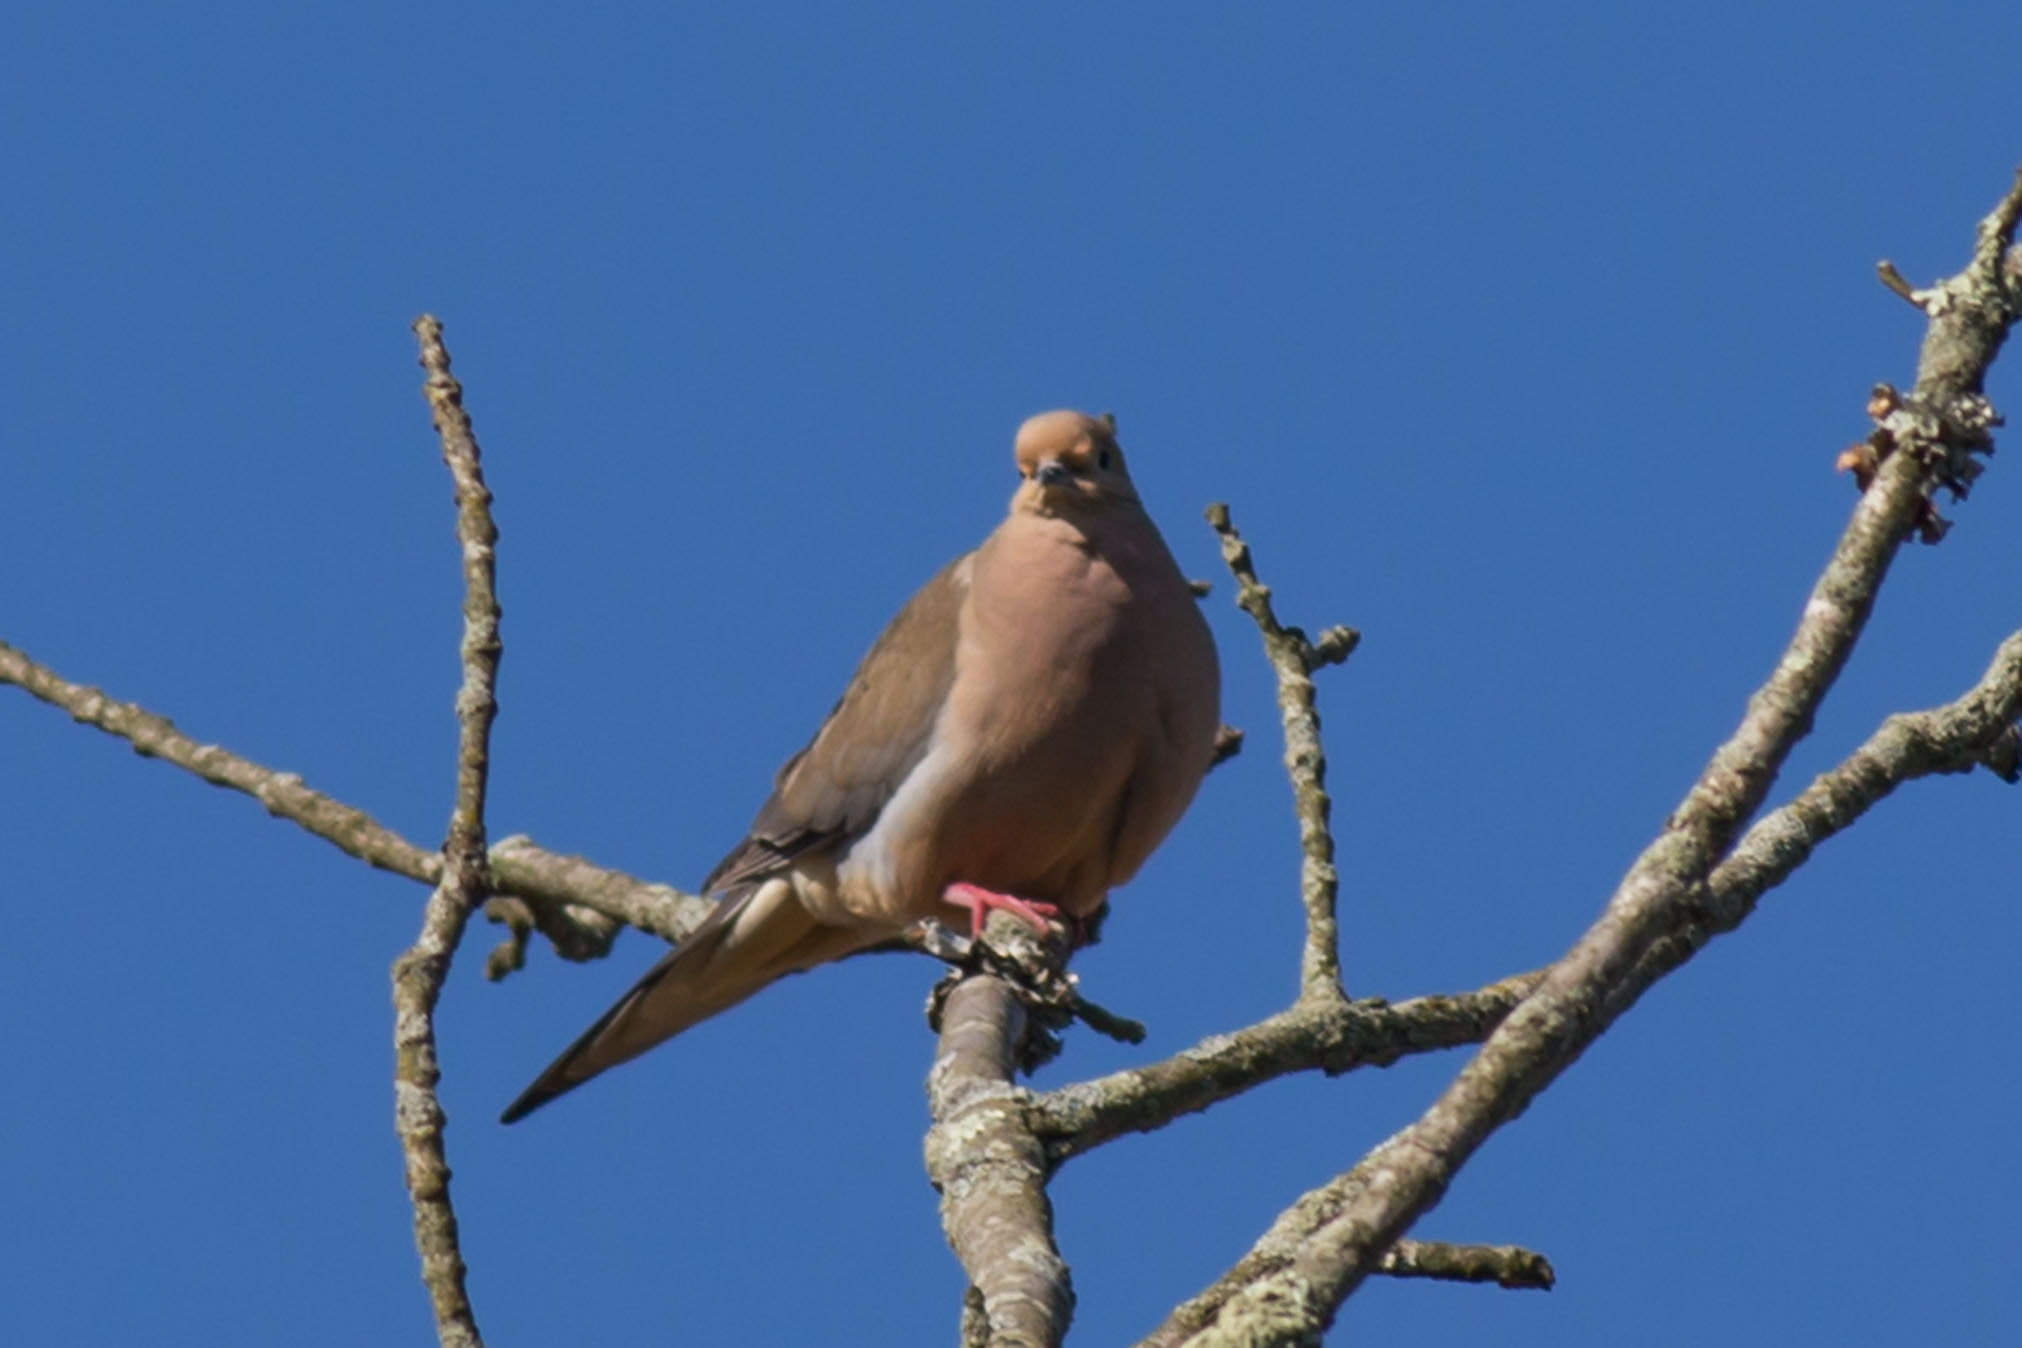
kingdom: Animalia
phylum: Chordata
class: Aves
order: Columbiformes
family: Columbidae
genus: Zenaida
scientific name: Zenaida macroura
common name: Mourning dove
